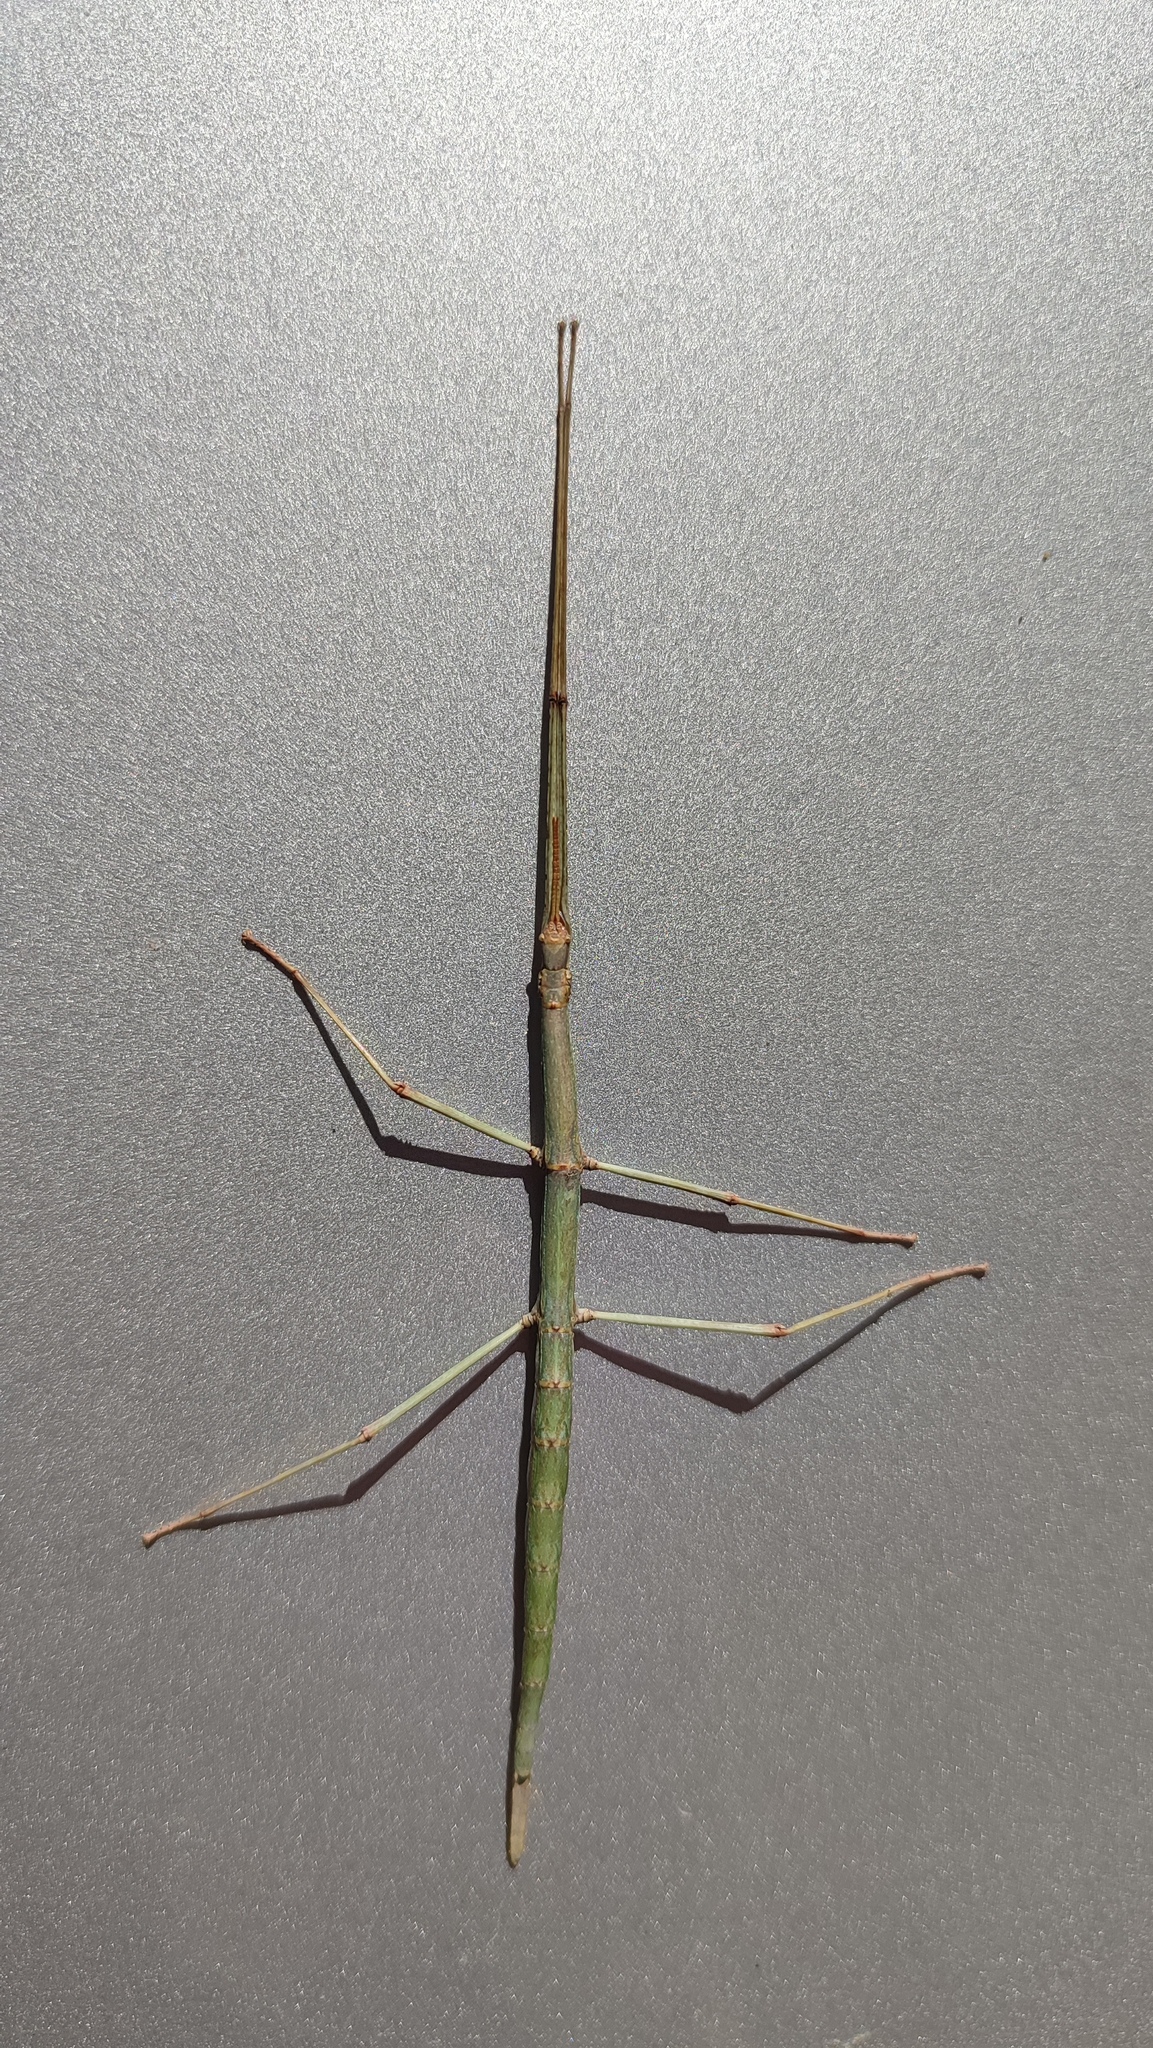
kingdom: Animalia
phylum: Arthropoda
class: Insecta
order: Phasmida
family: Bacillidae
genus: Phalces
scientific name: Phalces brevis
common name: Cape stick insect
